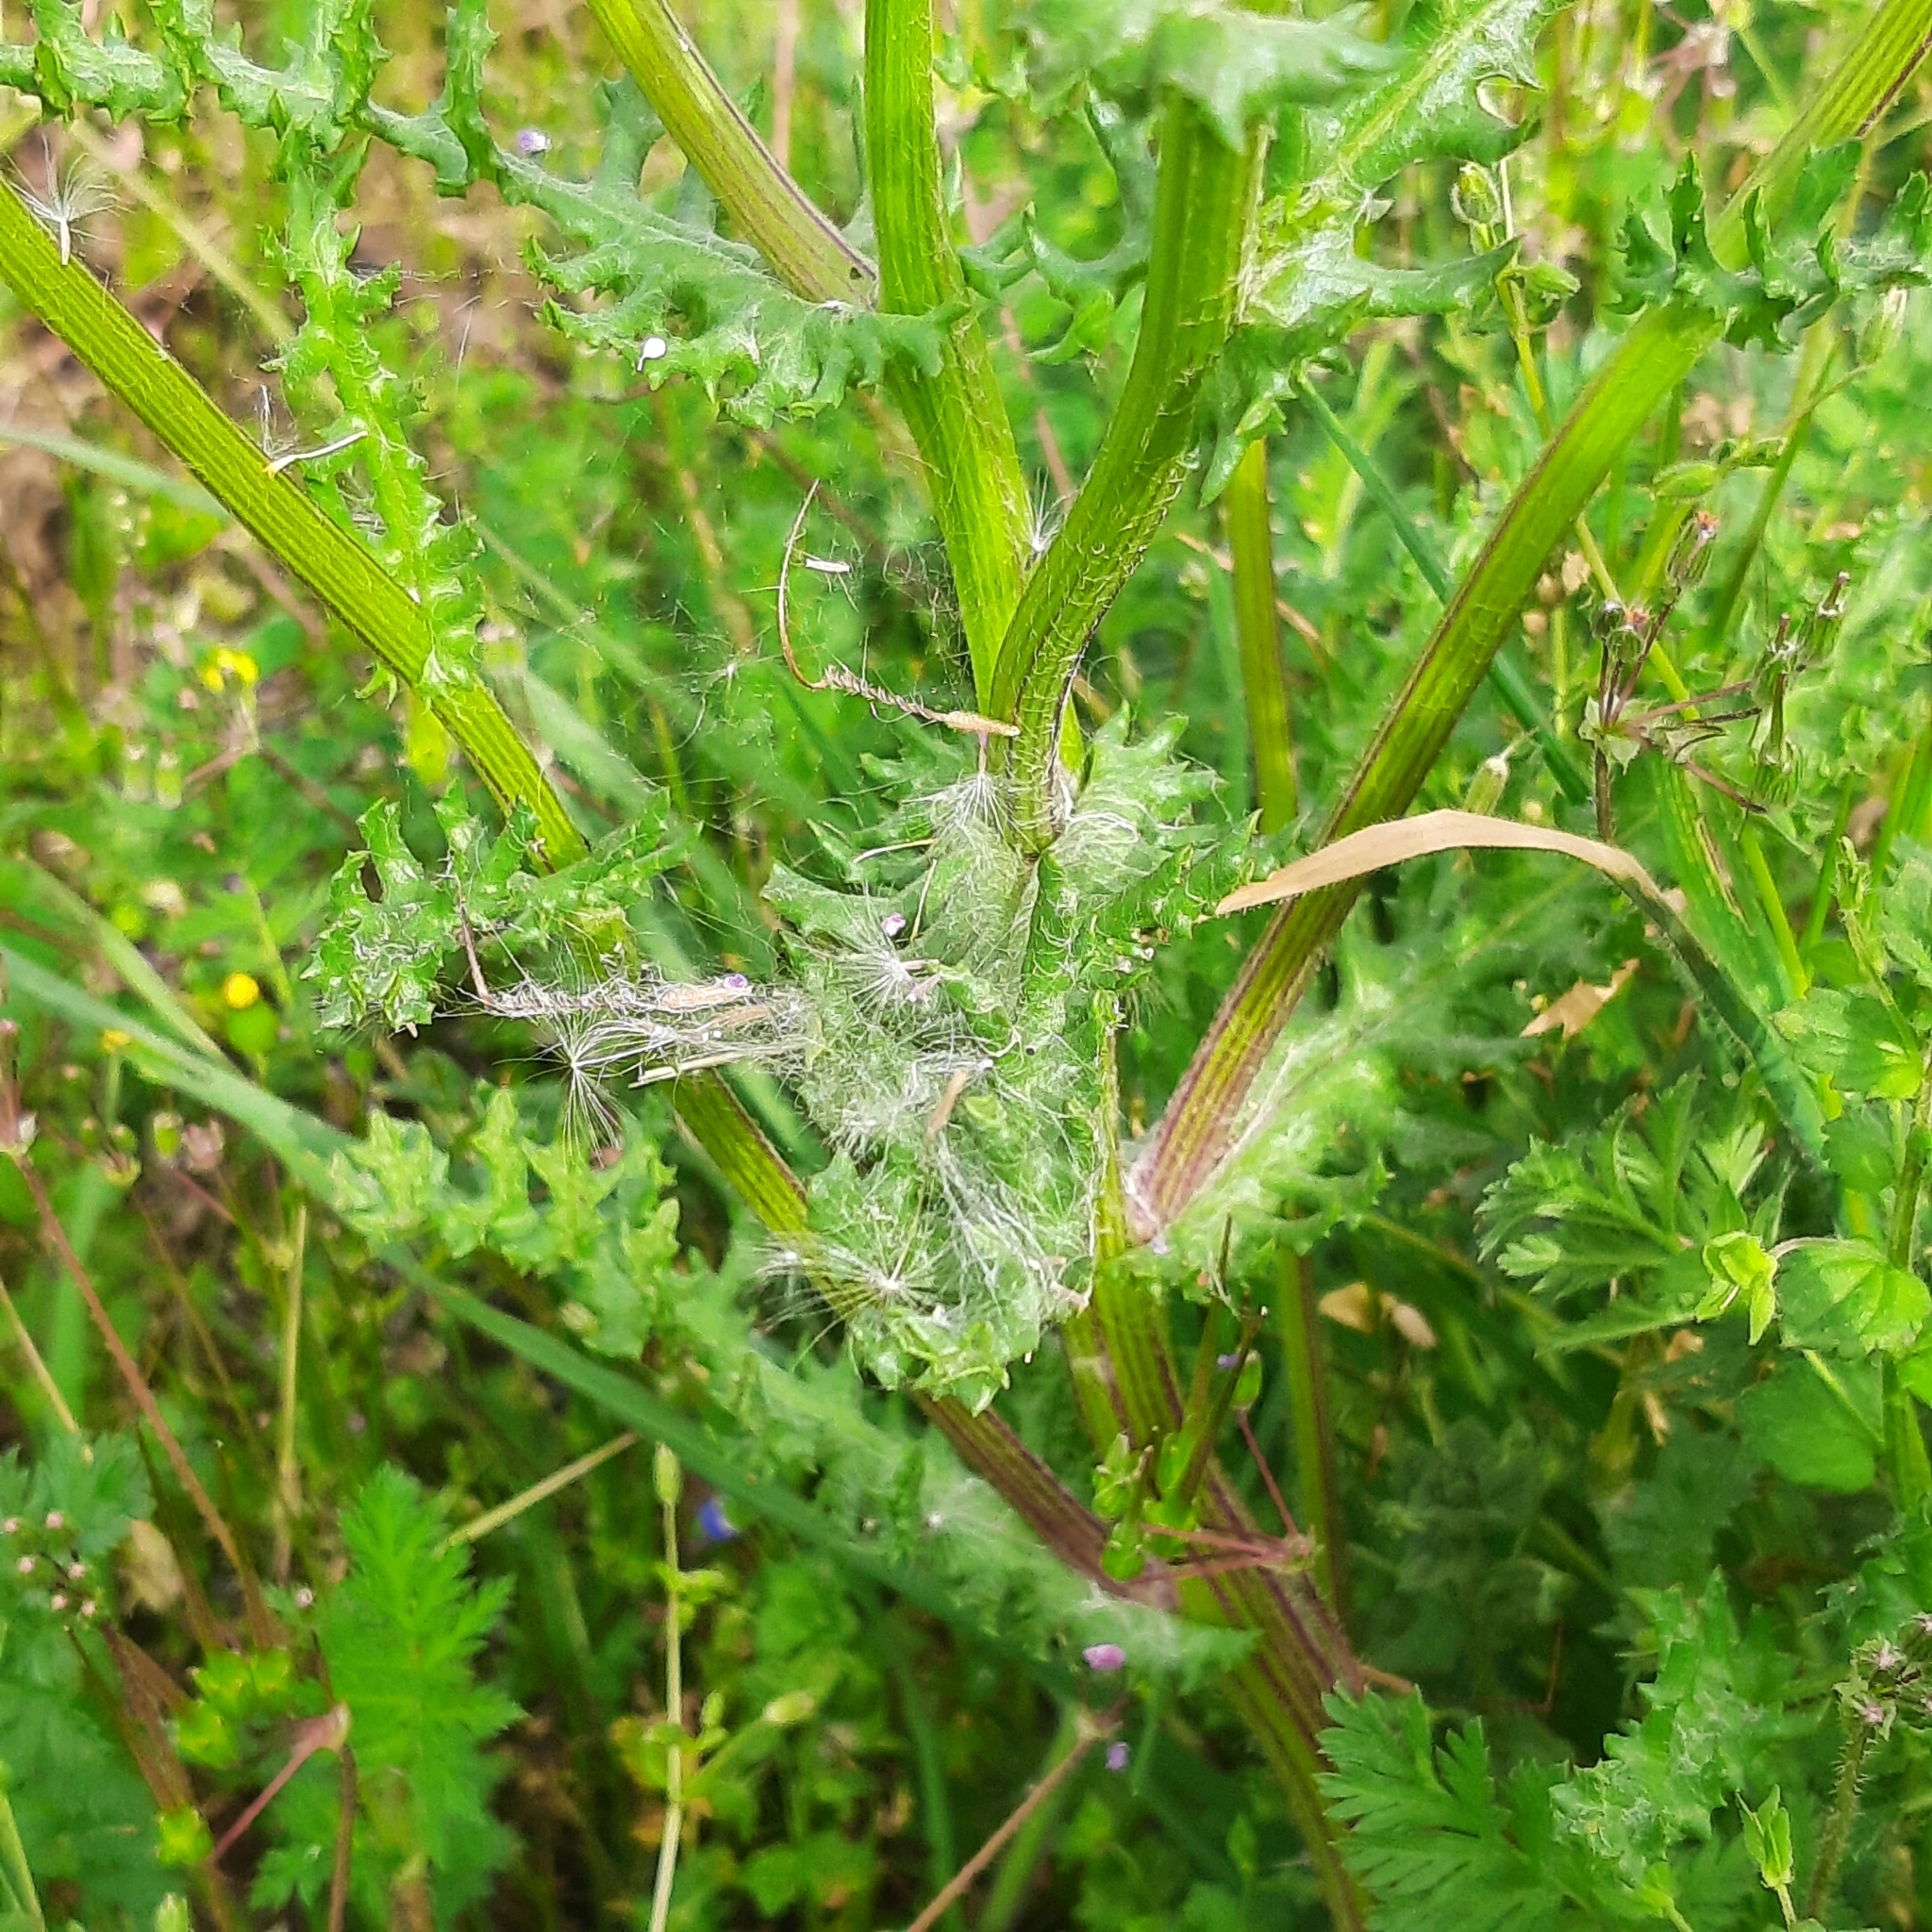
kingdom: Plantae
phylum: Tracheophyta
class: Magnoliopsida
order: Asterales
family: Asteraceae
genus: Senecio
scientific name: Senecio vernalis
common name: Eastern groundsel
